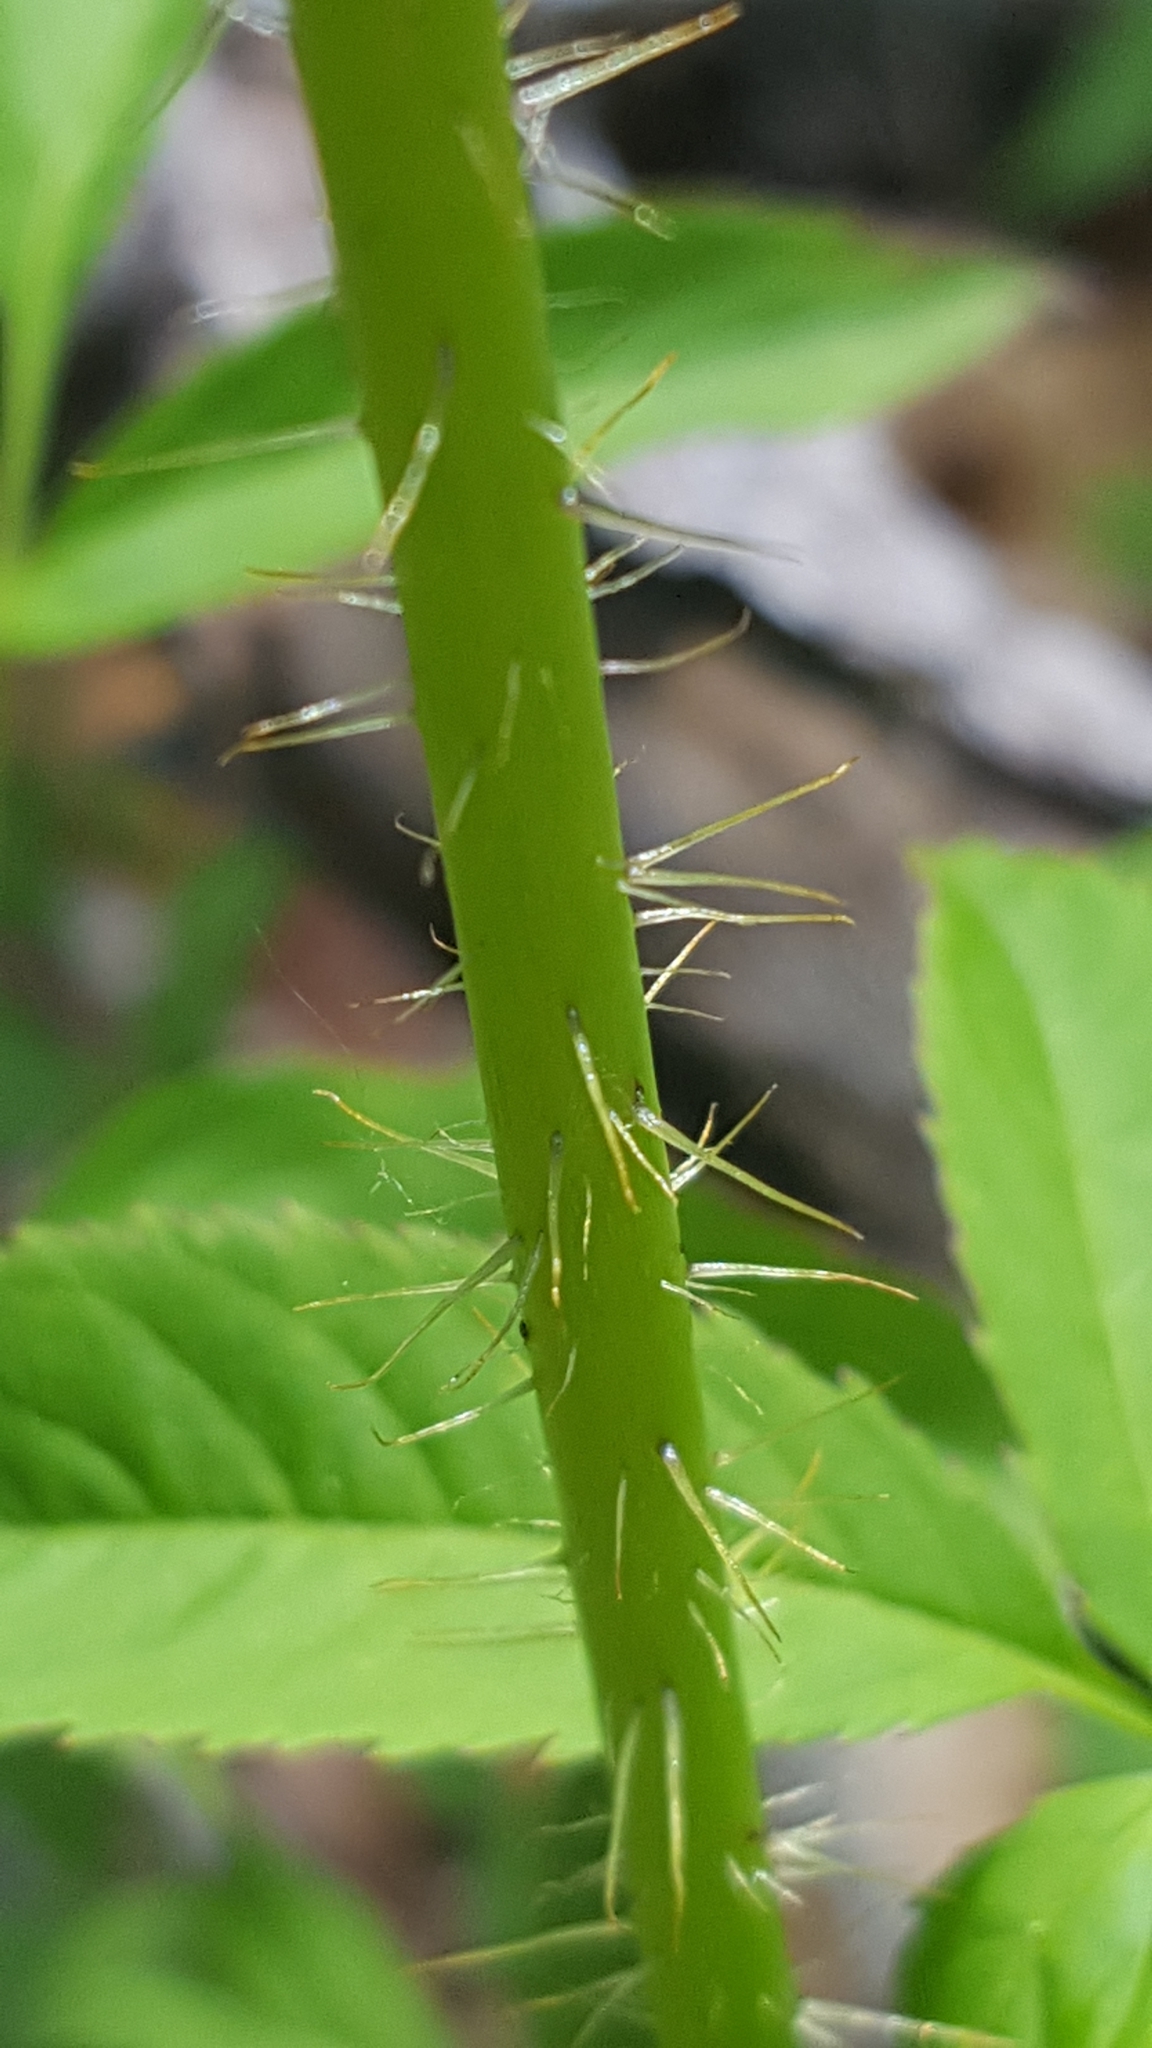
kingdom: Plantae
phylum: Tracheophyta
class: Magnoliopsida
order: Apiales
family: Araliaceae
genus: Aralia
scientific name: Aralia hispida
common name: Bristly sarsaparilla
